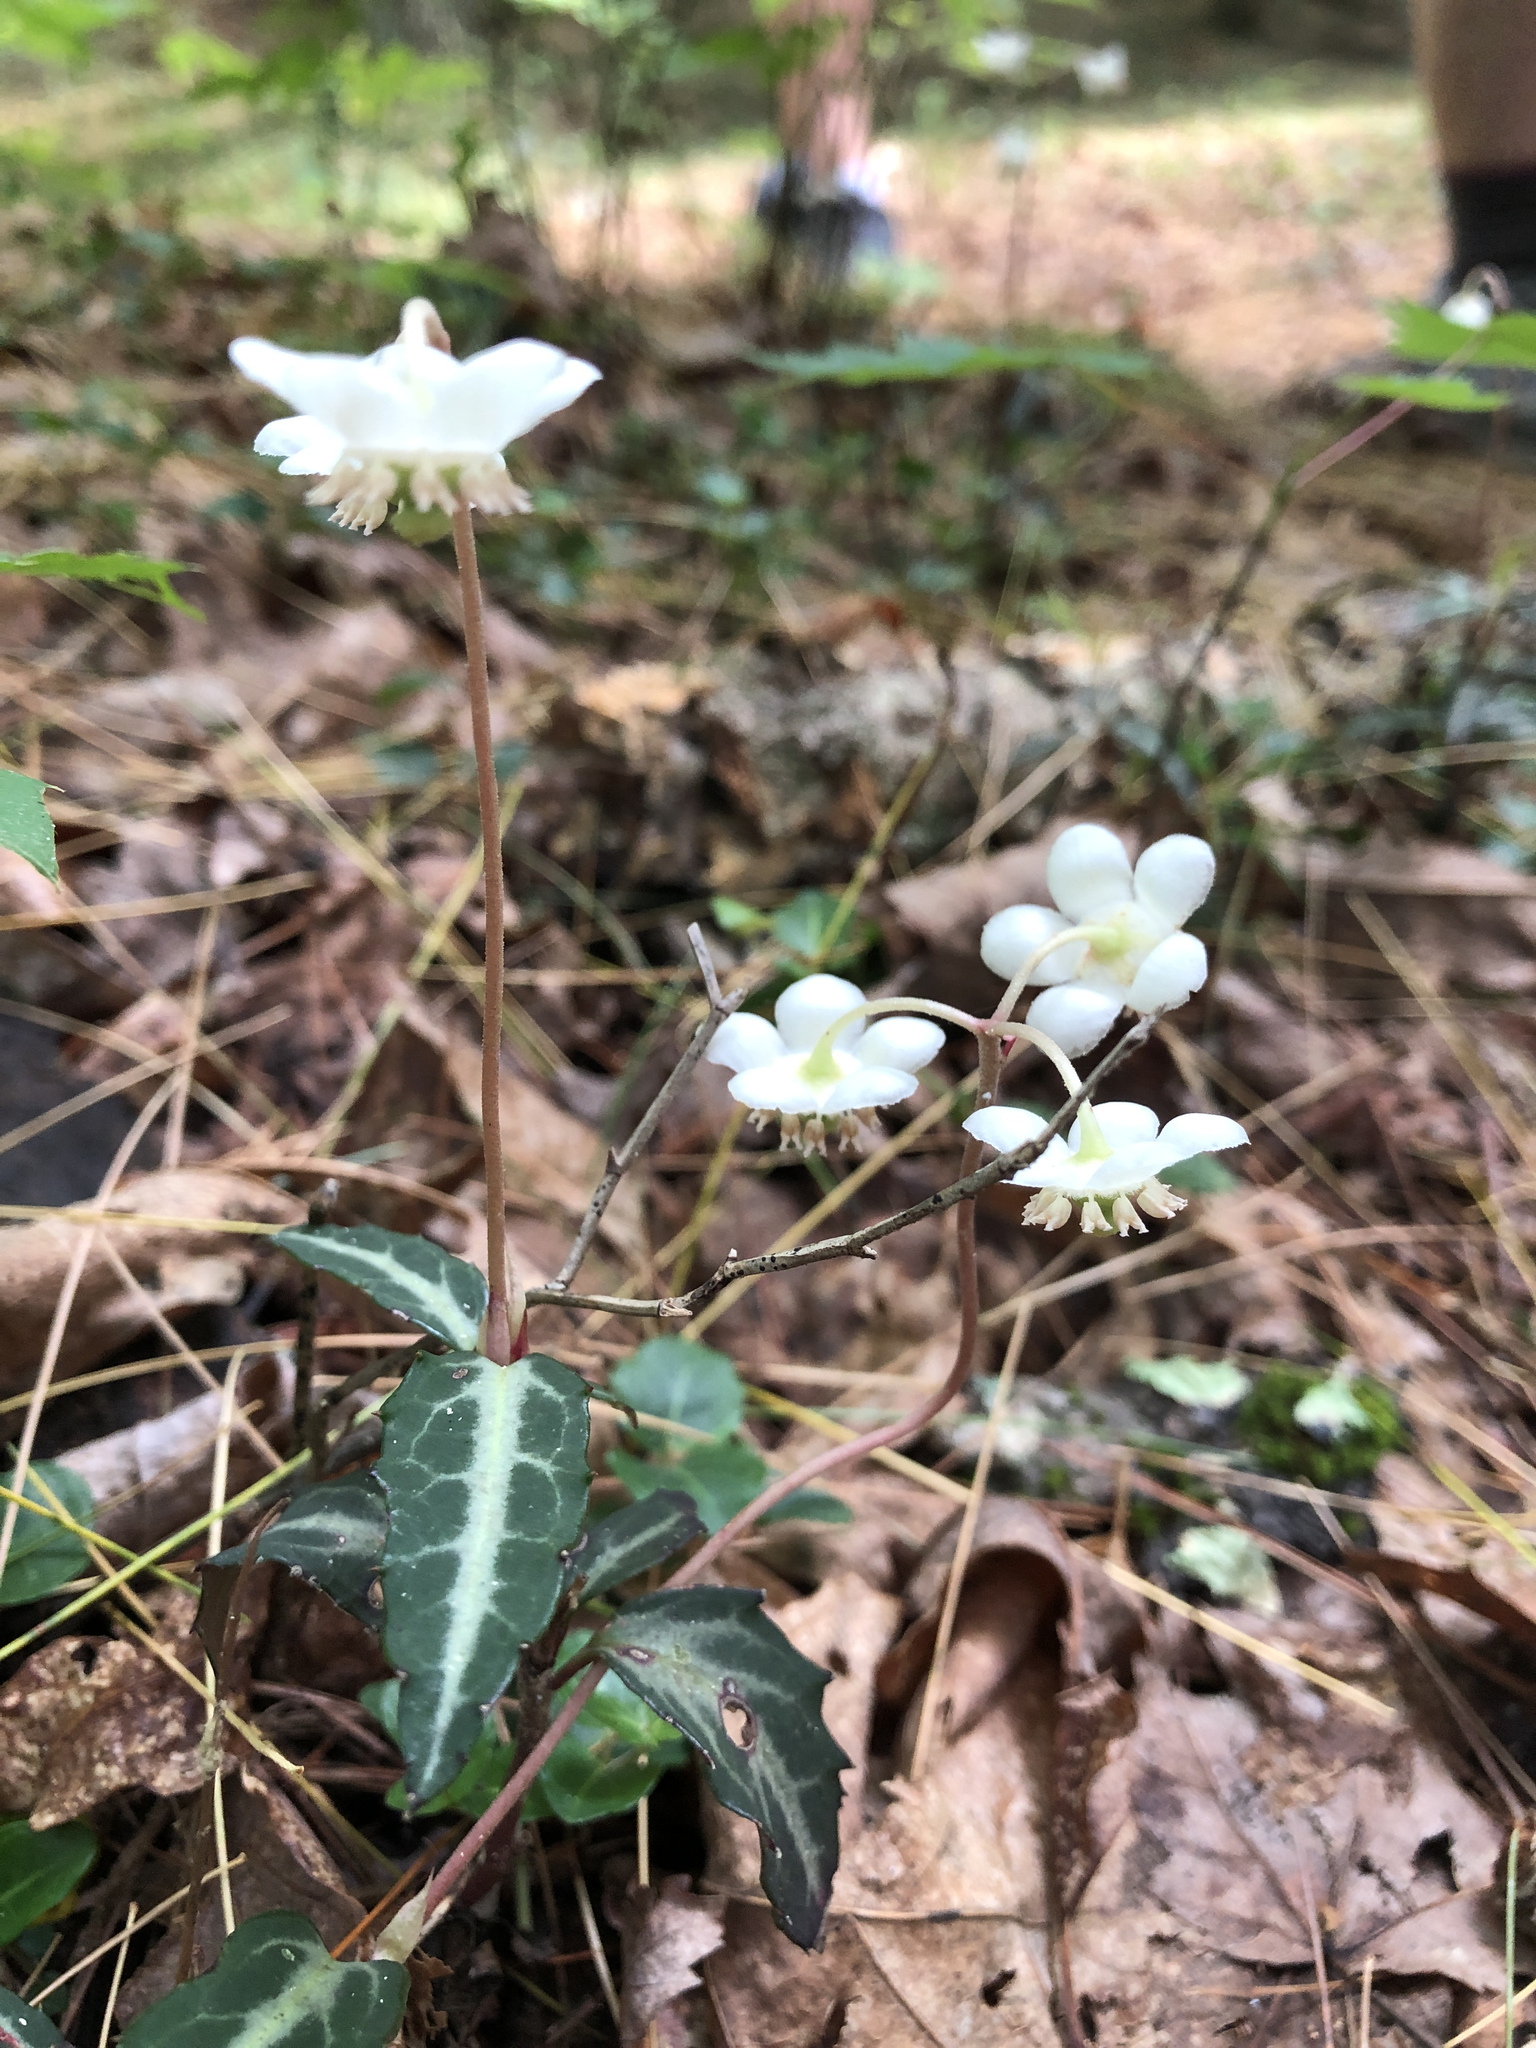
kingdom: Plantae
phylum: Tracheophyta
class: Magnoliopsida
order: Ericales
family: Ericaceae
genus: Chimaphila
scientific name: Chimaphila maculata
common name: Spotted pipsissewa
